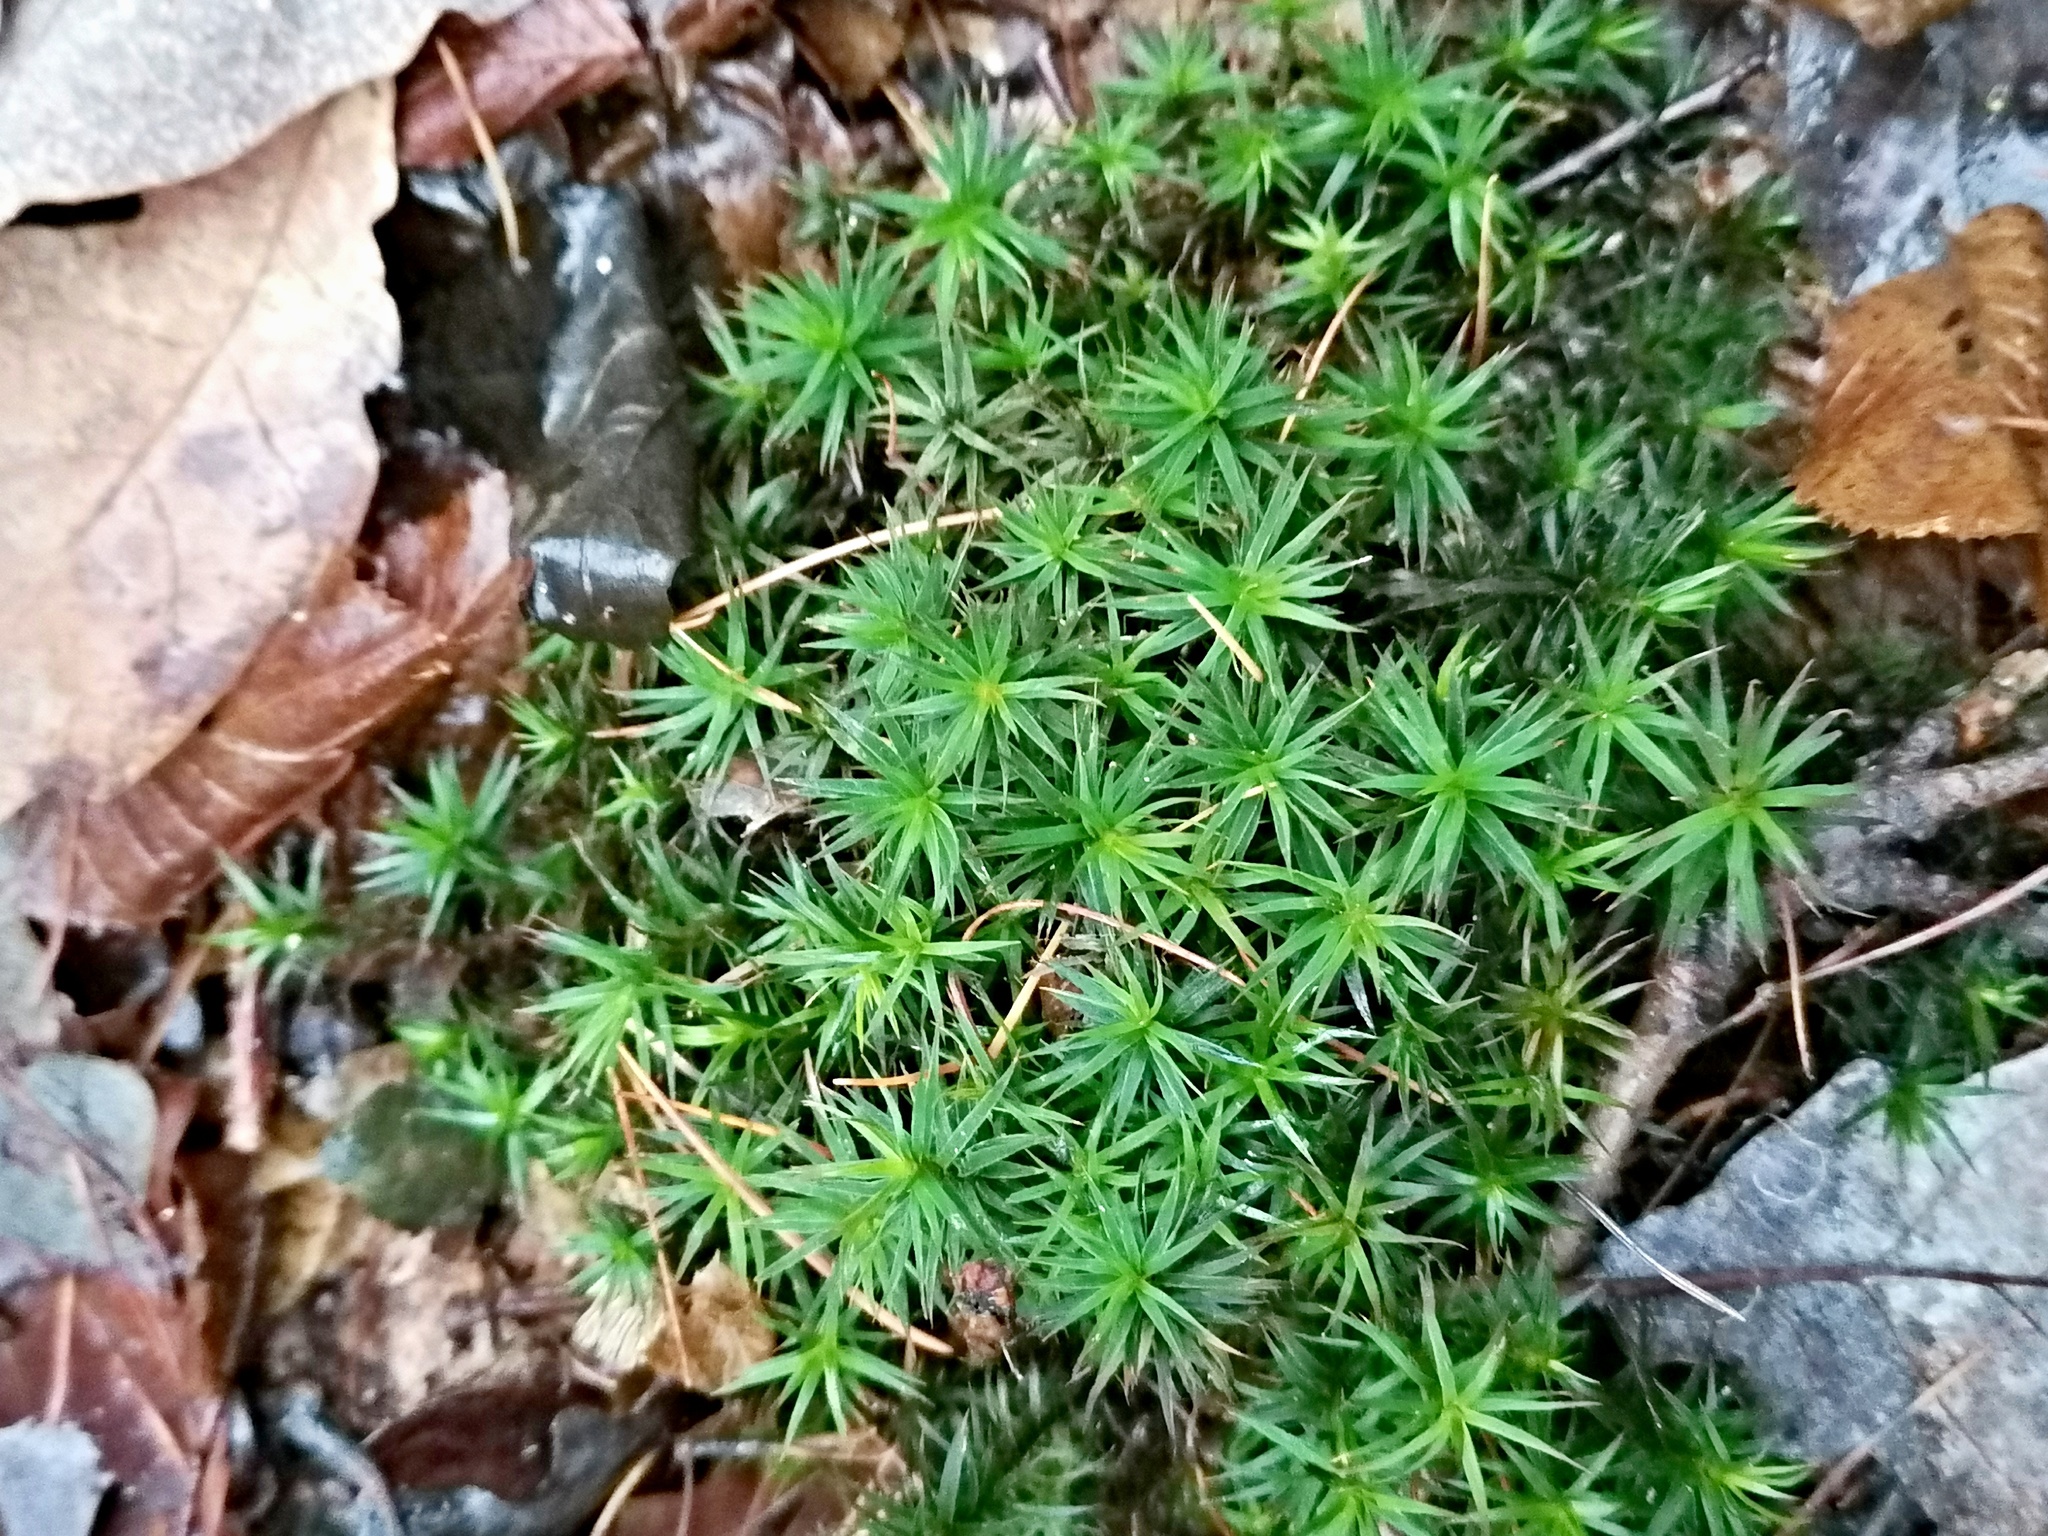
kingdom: Plantae
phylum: Bryophyta
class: Polytrichopsida
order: Polytrichales
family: Polytrichaceae
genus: Polytrichum
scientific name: Polytrichum formosum
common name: Bank haircap moss
